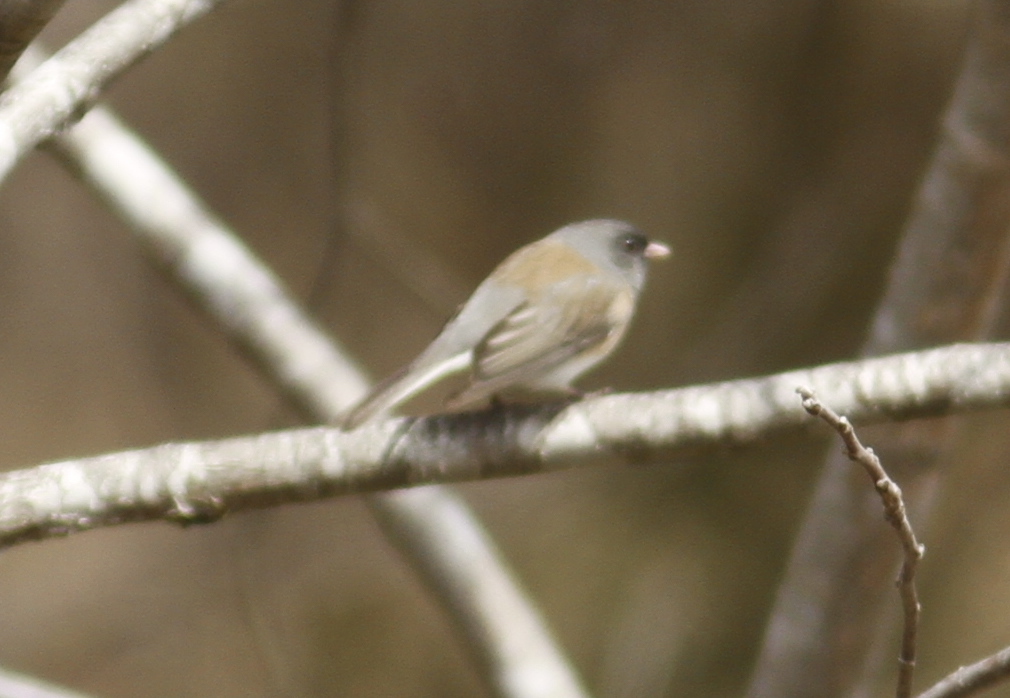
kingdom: Animalia
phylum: Chordata
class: Aves
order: Passeriformes
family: Passerellidae
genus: Junco
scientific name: Junco hyemalis
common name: Dark-eyed junco
